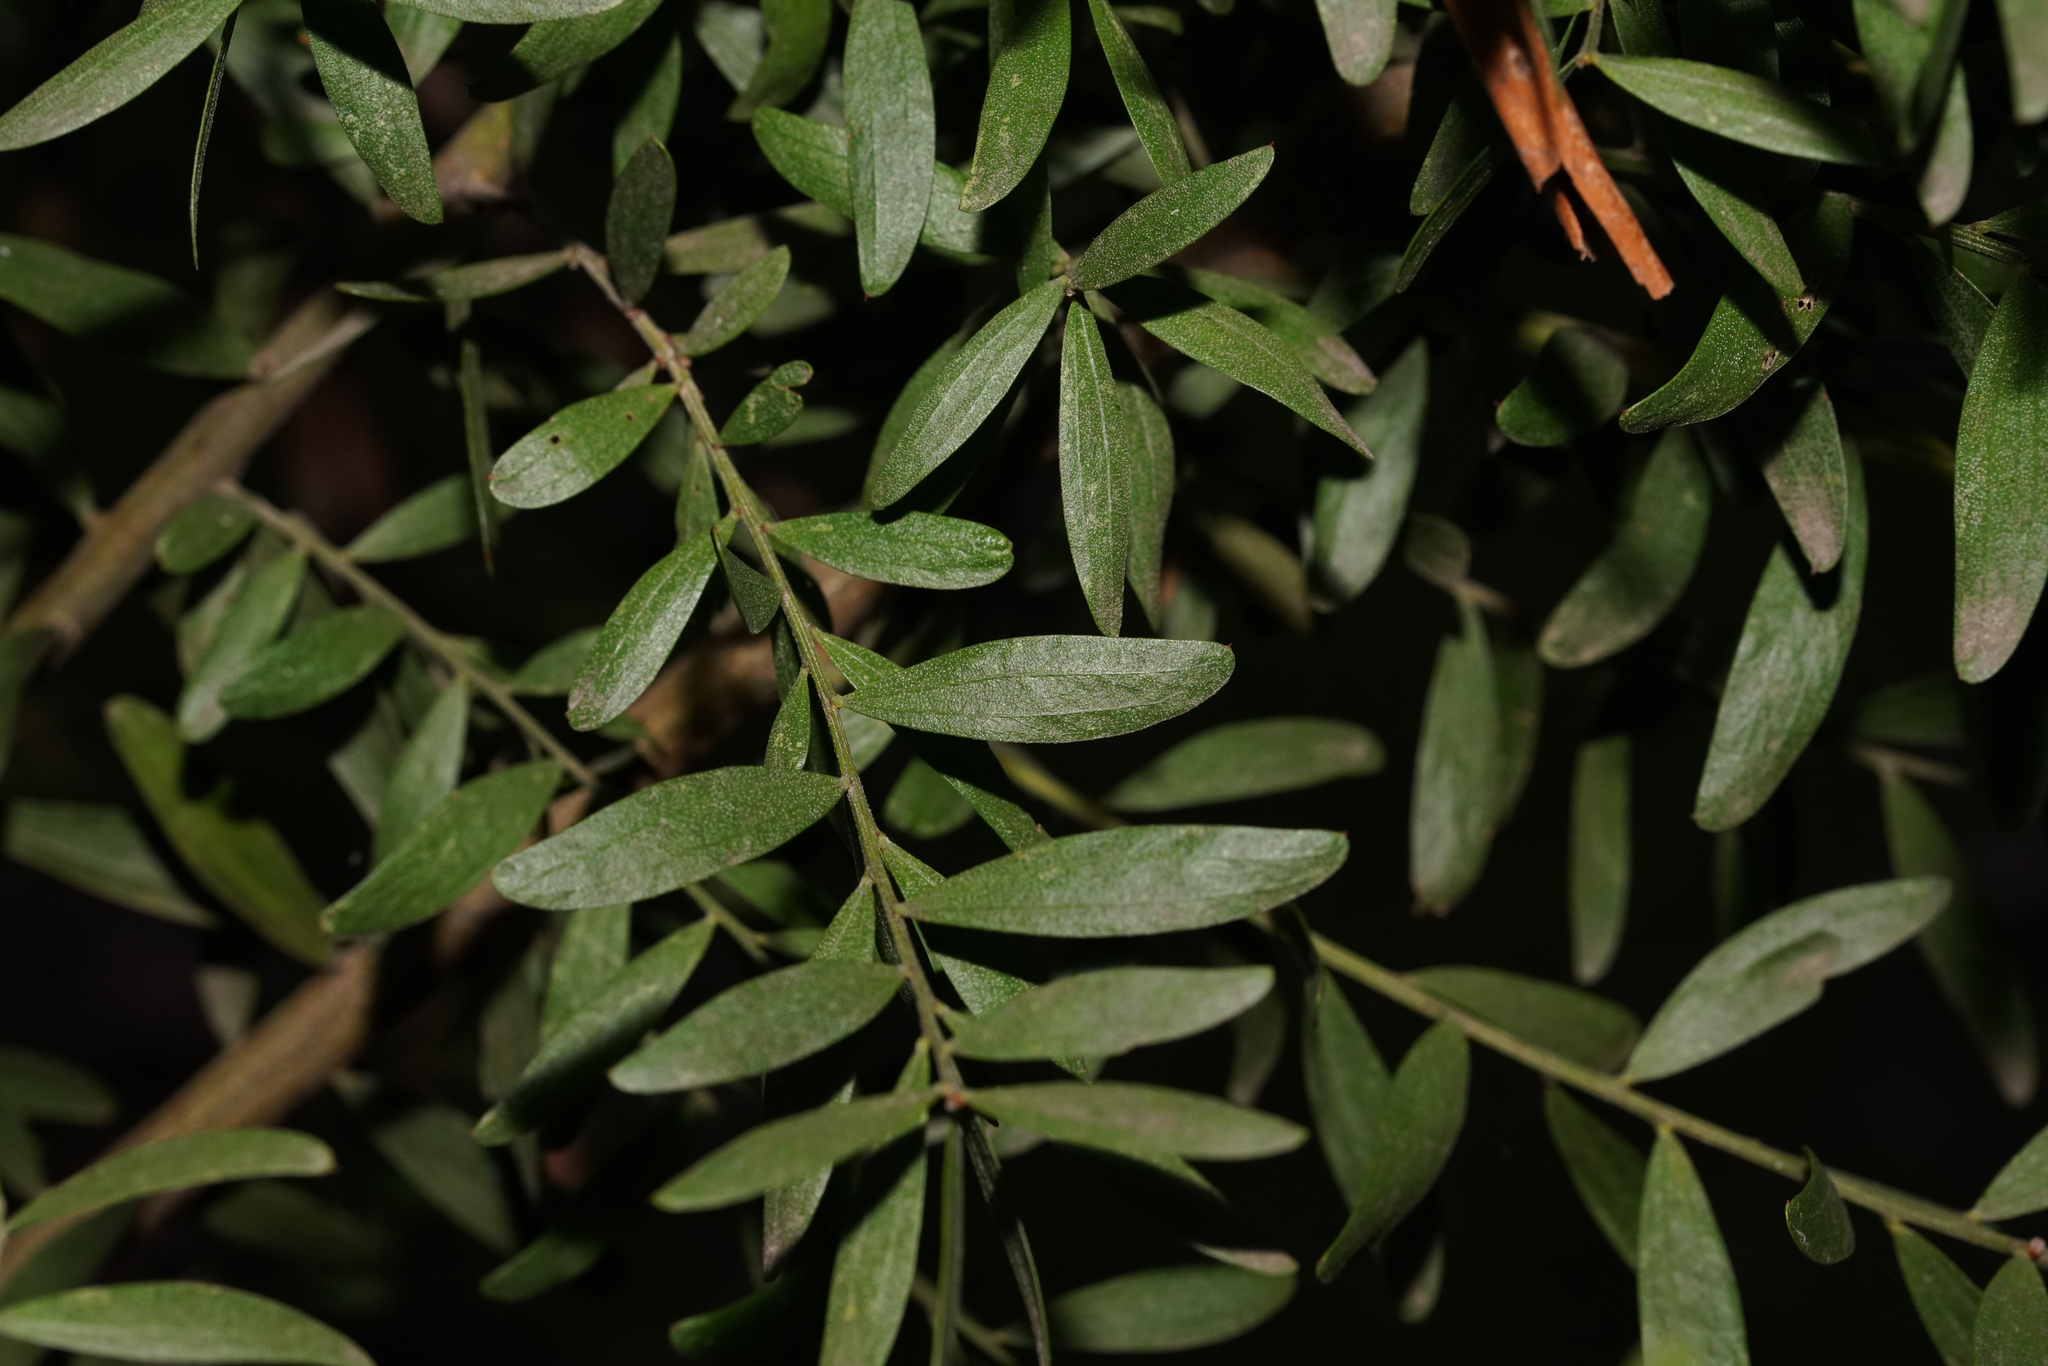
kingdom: Plantae
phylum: Tracheophyta
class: Magnoliopsida
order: Fabales
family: Fabaceae
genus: Acacia
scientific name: Acacia verniciflua
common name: Varnish wattle
